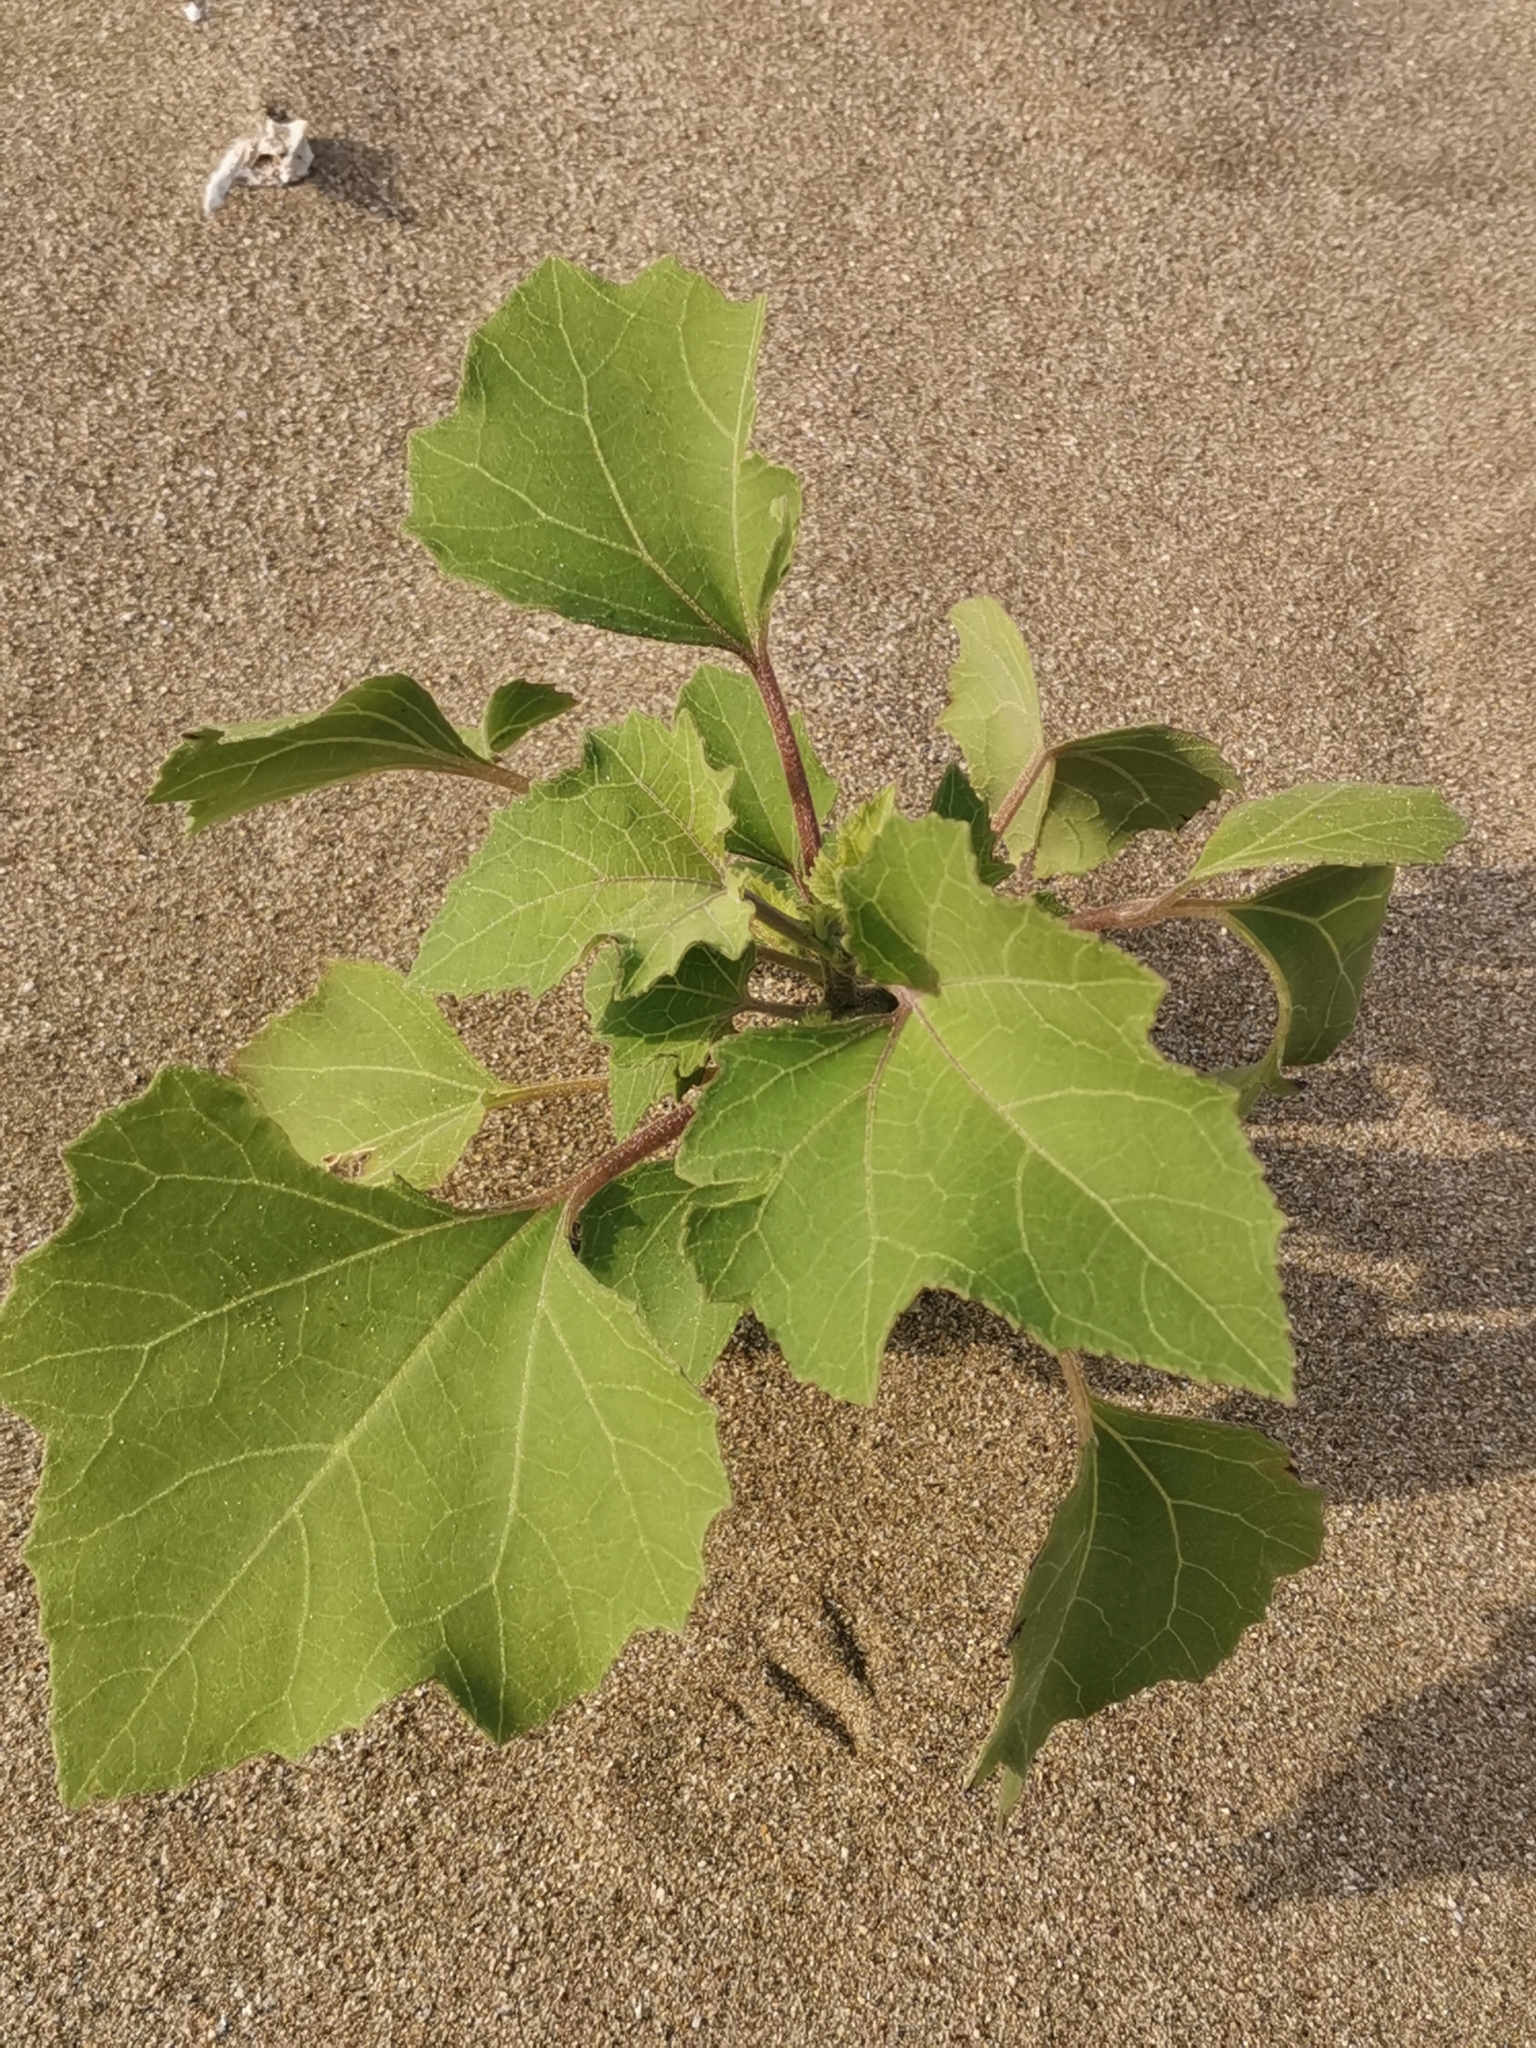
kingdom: Plantae
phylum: Tracheophyta
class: Magnoliopsida
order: Asterales
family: Asteraceae
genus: Xanthium
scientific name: Xanthium strumarium
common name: Rough cocklebur
